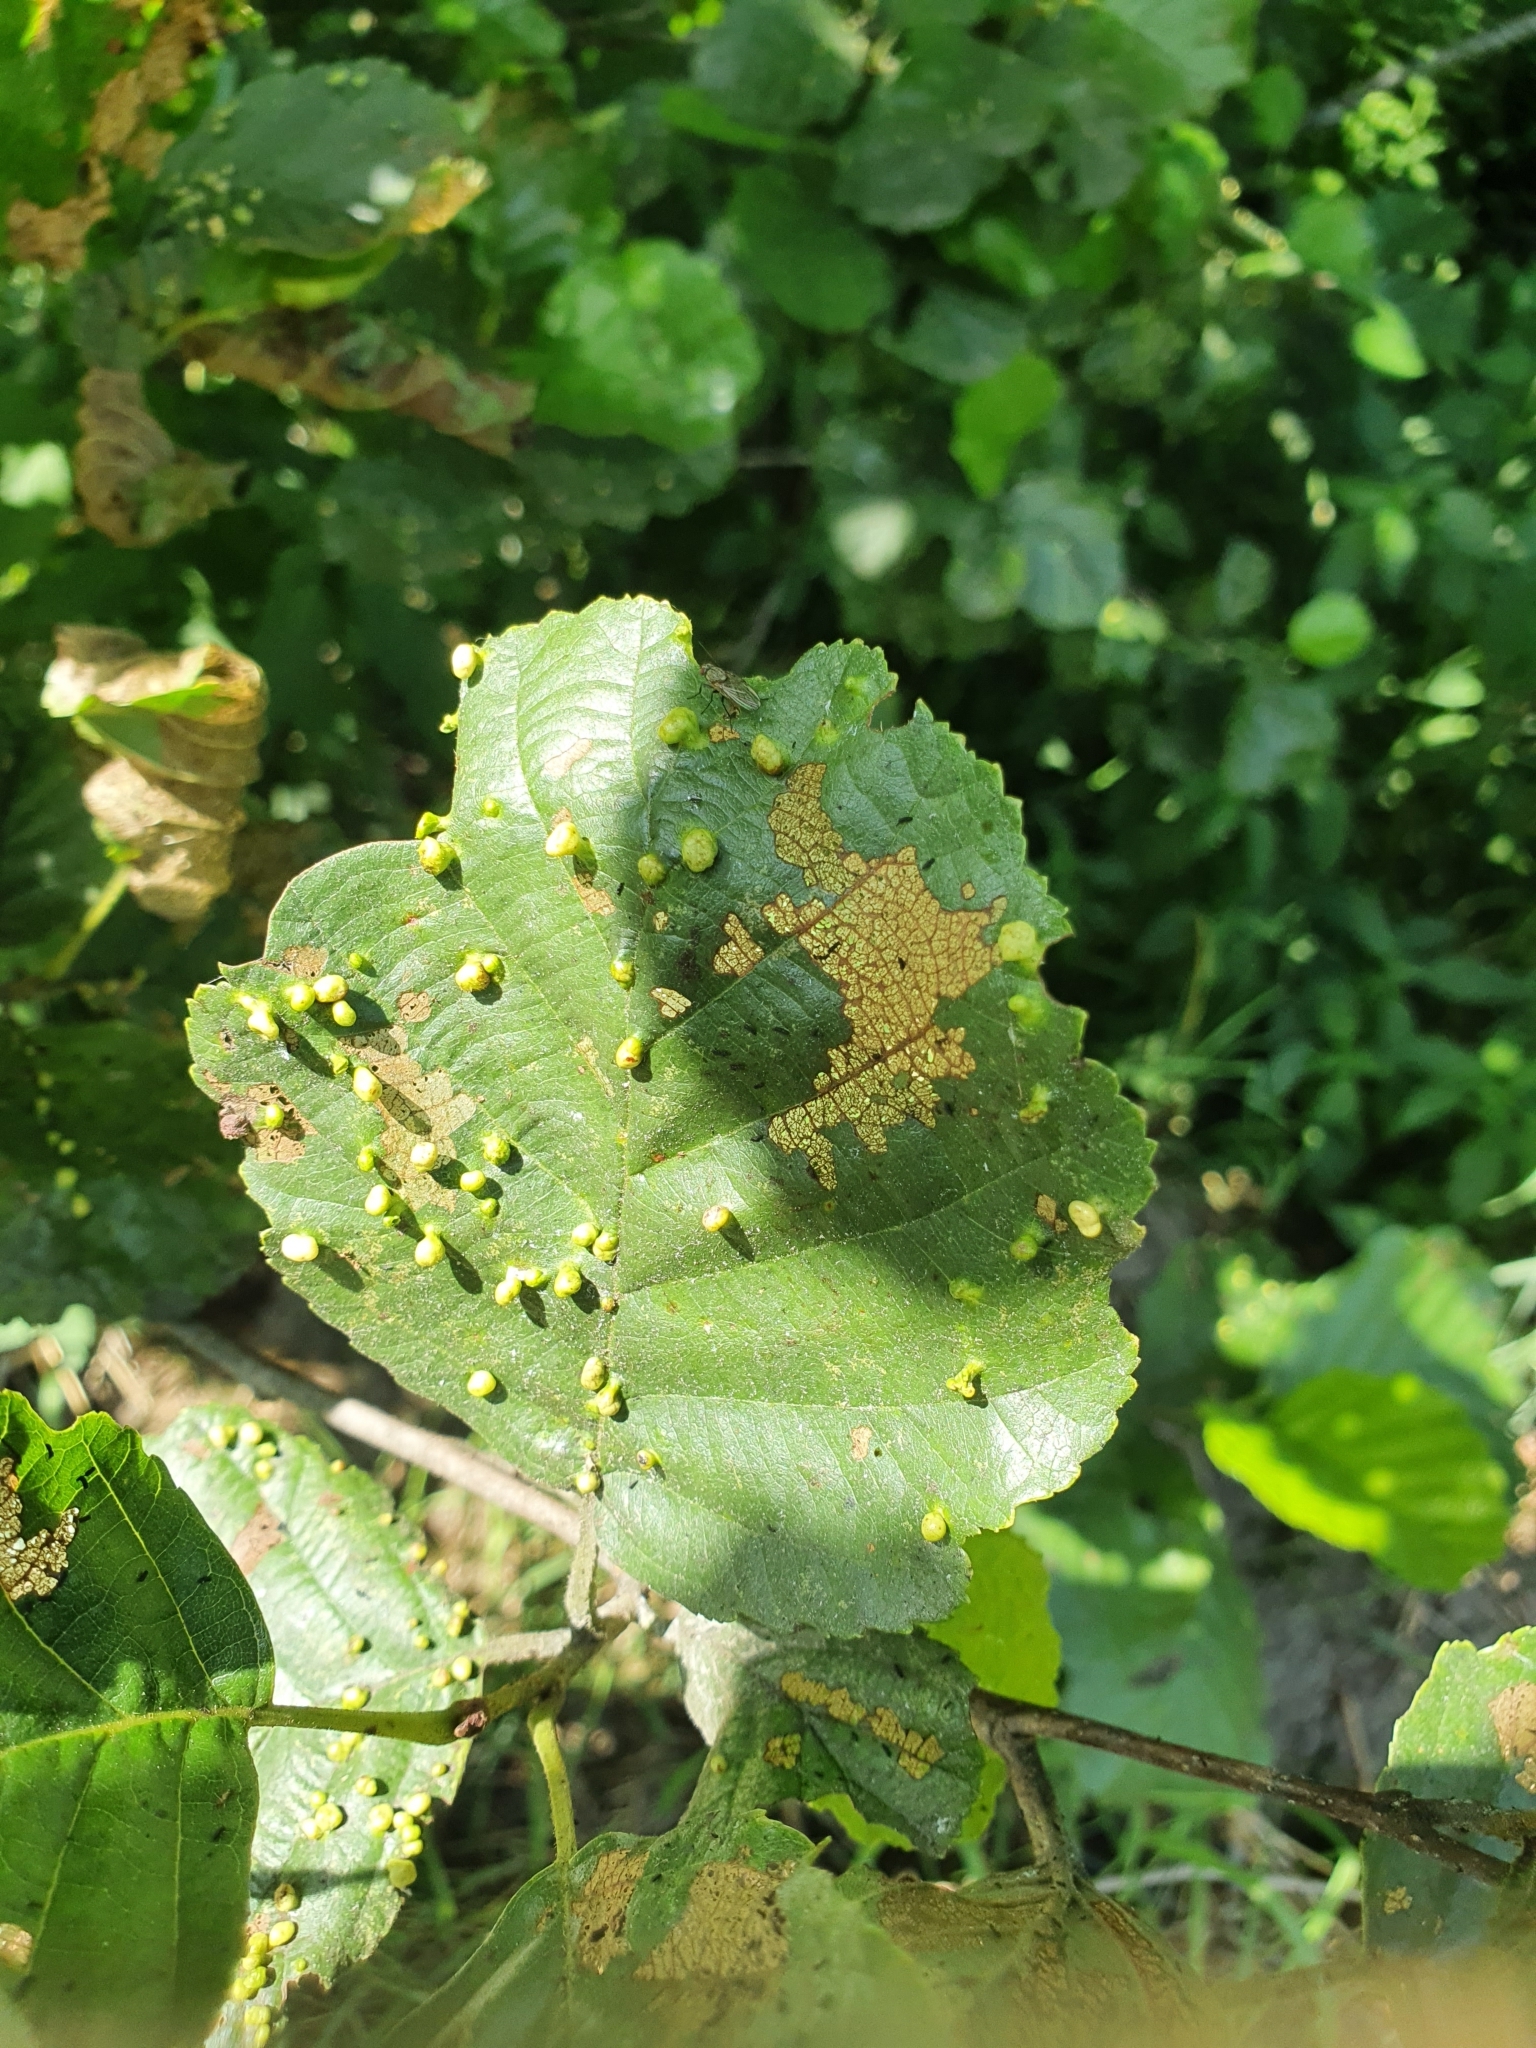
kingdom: Animalia
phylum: Arthropoda
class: Arachnida
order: Trombidiformes
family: Eriophyidae
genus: Eriophyes
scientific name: Eriophyes laevis
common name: Alder leaf gall mite
